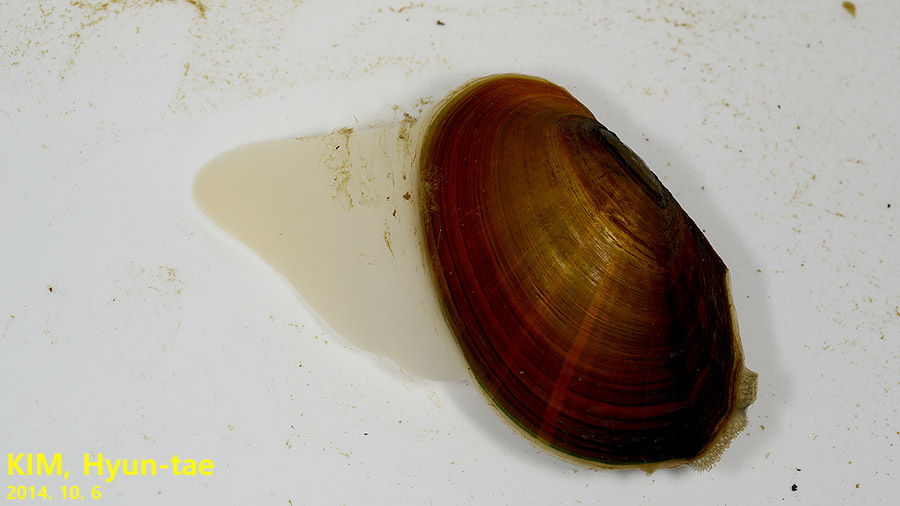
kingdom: Animalia
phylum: Mollusca
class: Bivalvia
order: Unionida
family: Unionidae
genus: Sinanodonta
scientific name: Sinanodonta lauta
